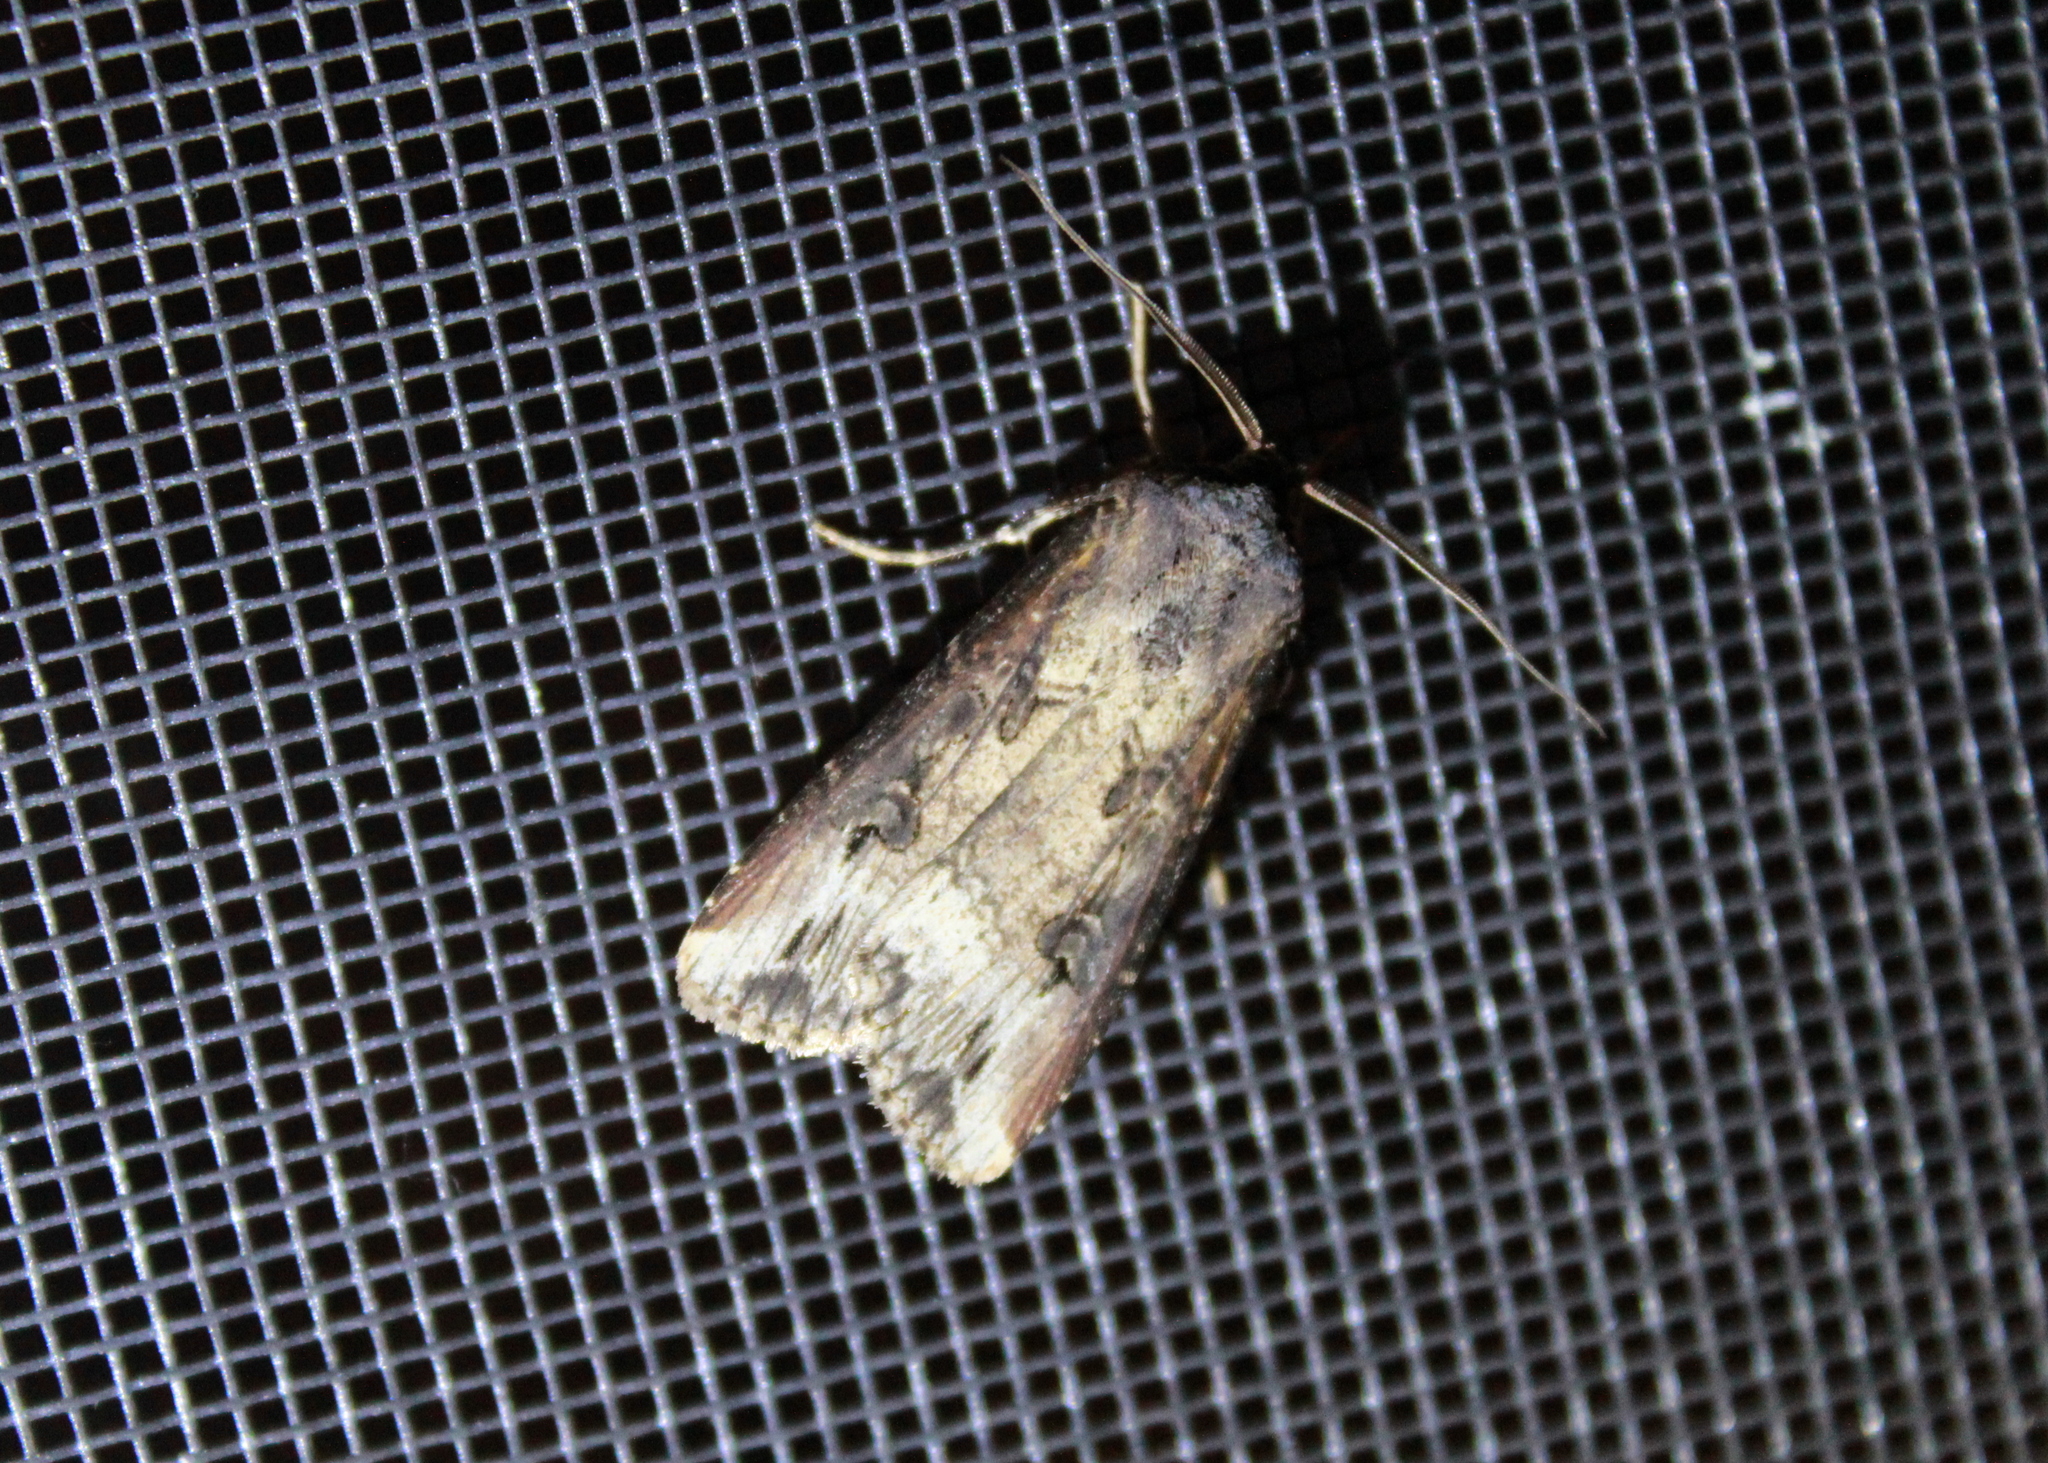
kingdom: Animalia
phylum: Arthropoda
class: Insecta
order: Lepidoptera
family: Noctuidae
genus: Agrotis
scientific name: Agrotis ipsilon
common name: Dark sword-grass
